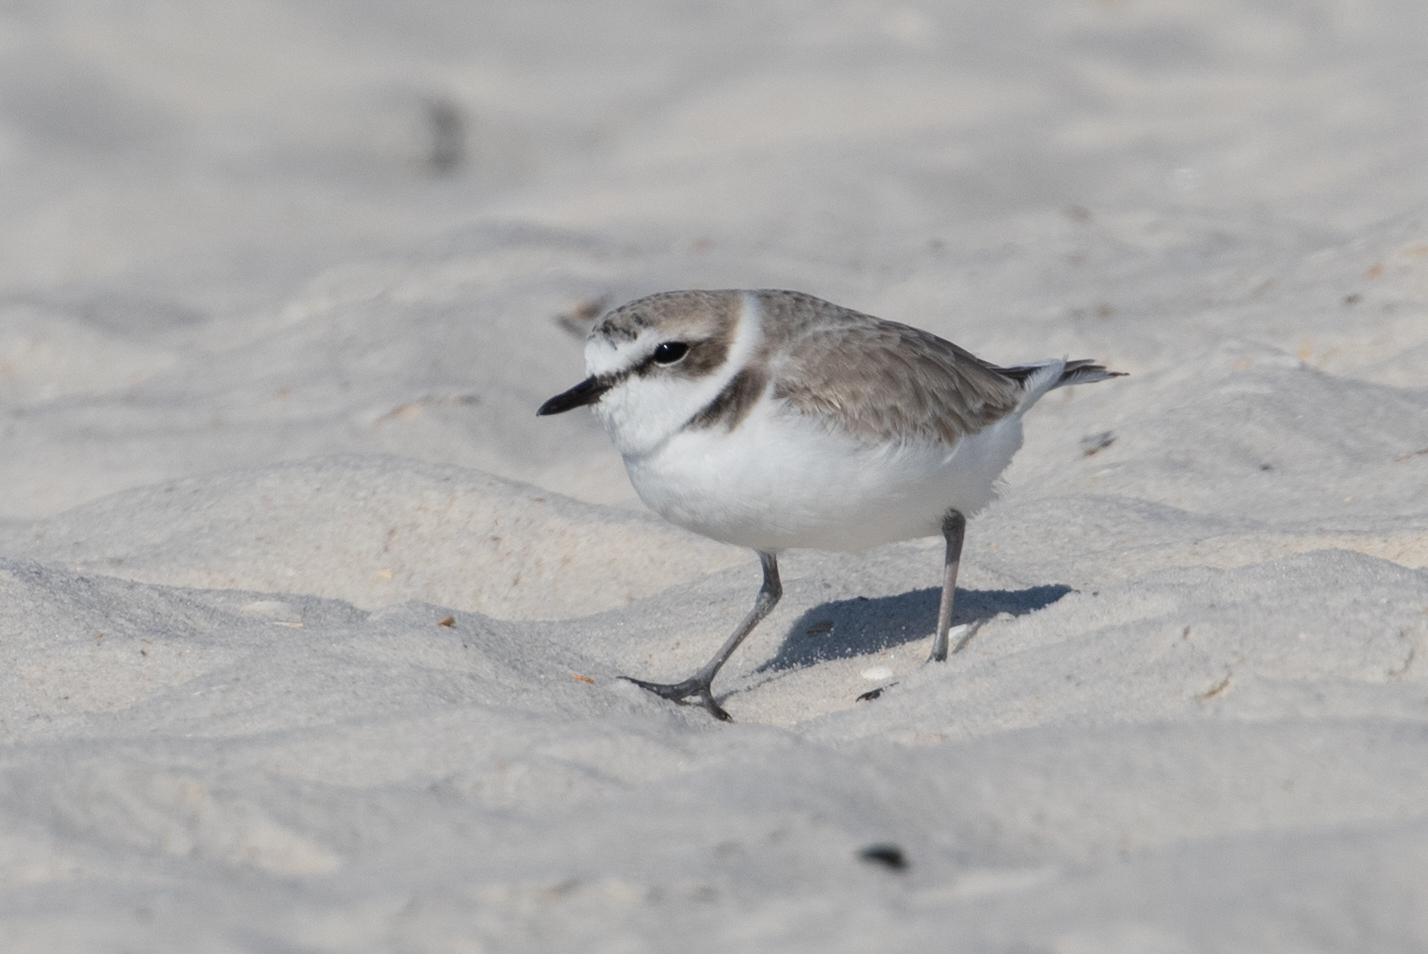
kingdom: Animalia
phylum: Chordata
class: Aves
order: Charadriiformes
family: Charadriidae
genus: Anarhynchus
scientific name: Anarhynchus
